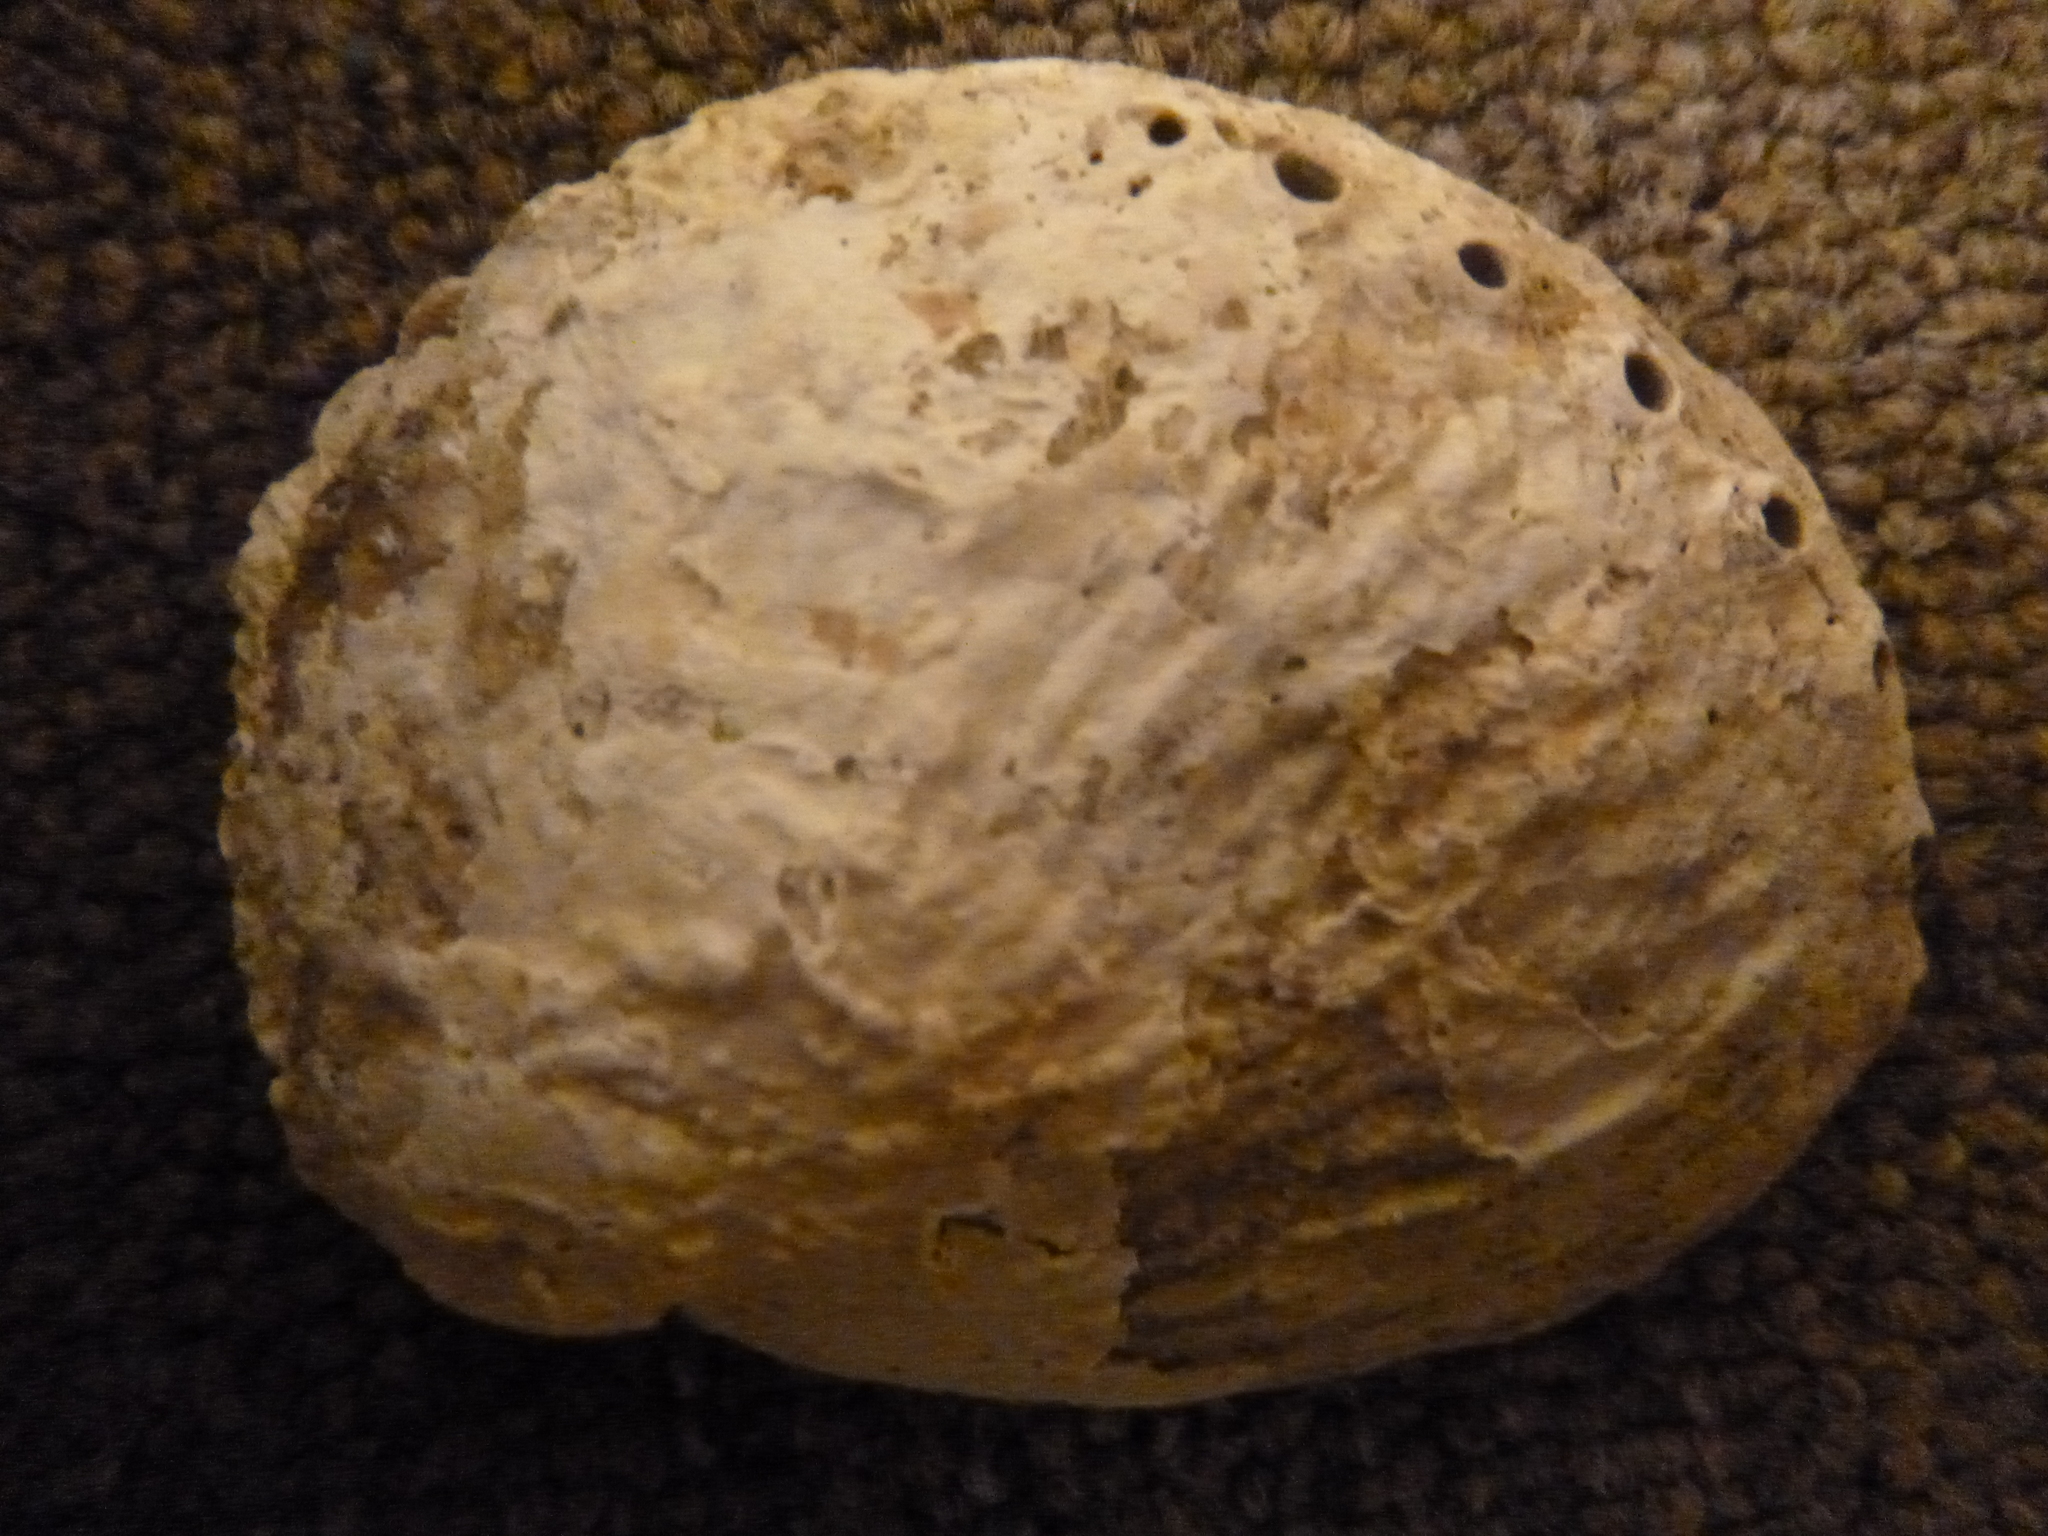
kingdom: Animalia
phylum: Mollusca
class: Gastropoda
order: Lepetellida
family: Haliotidae
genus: Haliotis
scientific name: Haliotis australis
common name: Silver abalone
